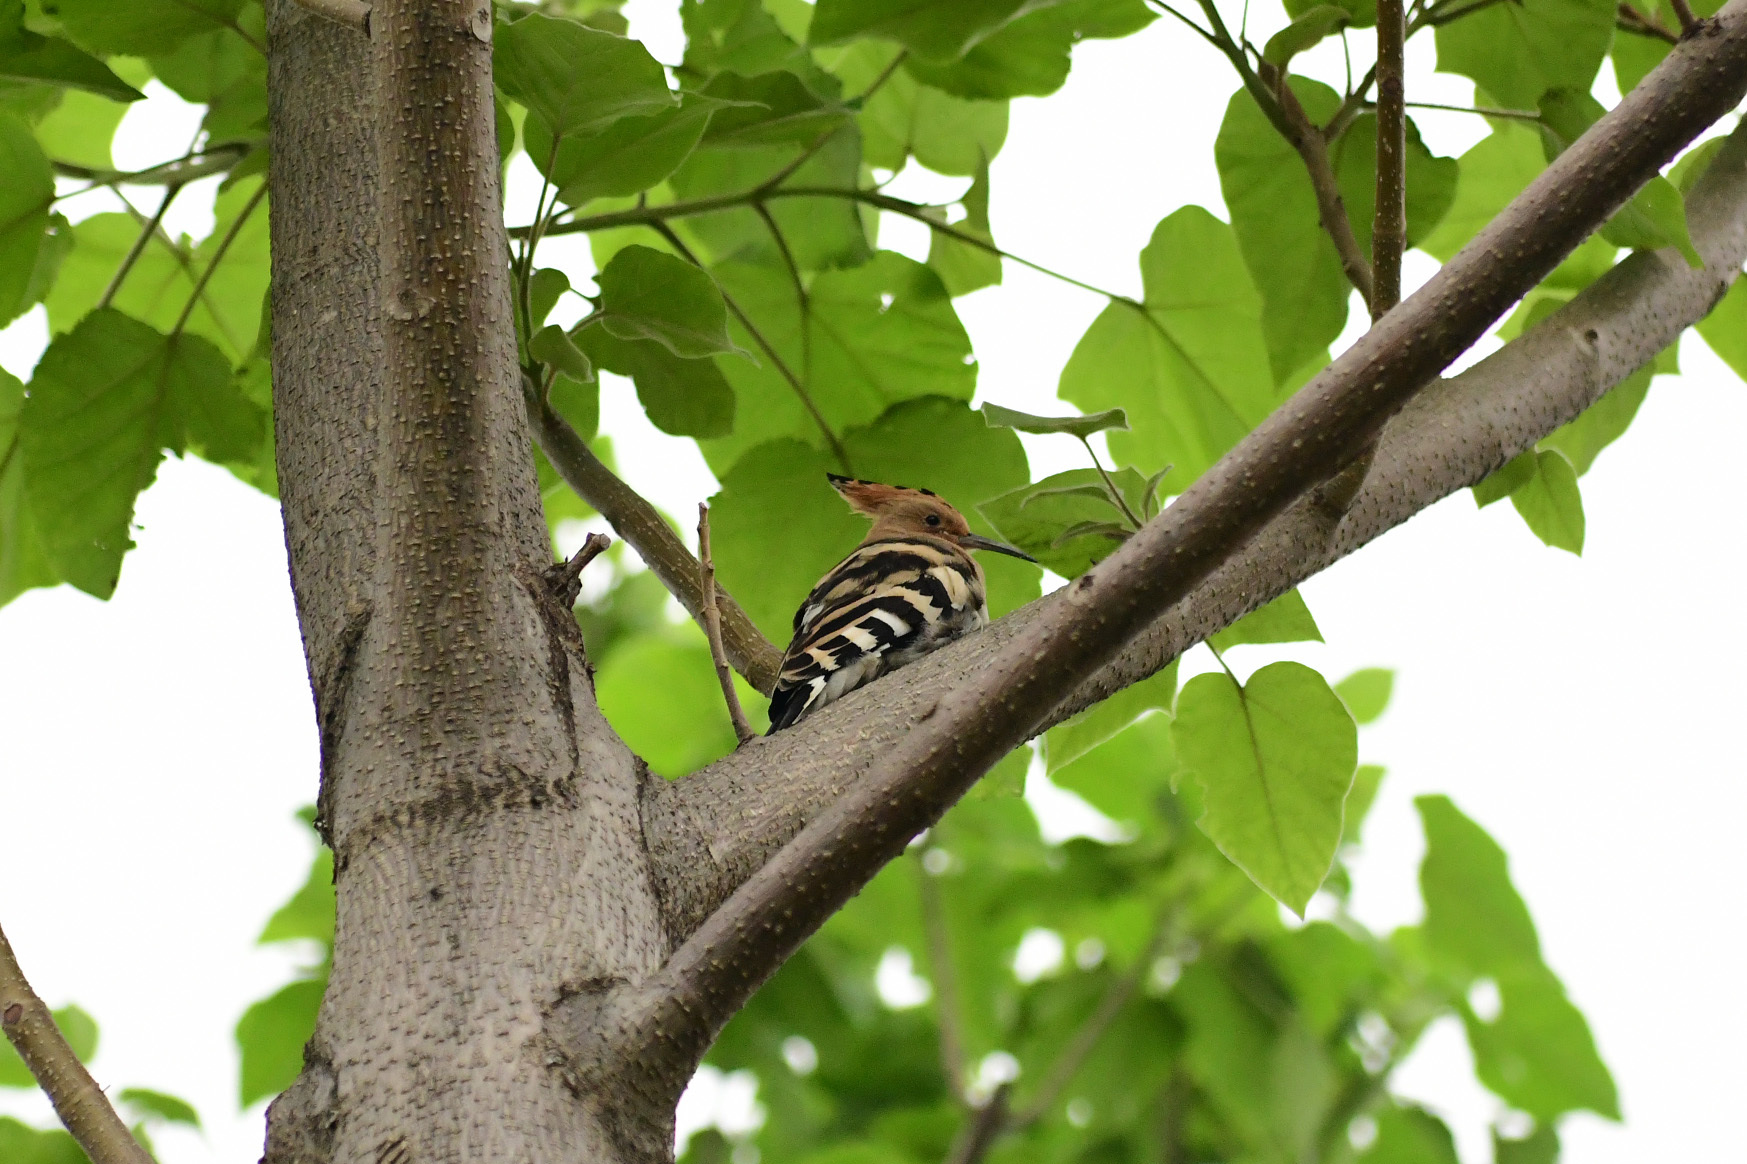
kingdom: Animalia
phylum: Chordata
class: Aves
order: Bucerotiformes
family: Upupidae
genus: Upupa
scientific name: Upupa epops
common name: Eurasian hoopoe
